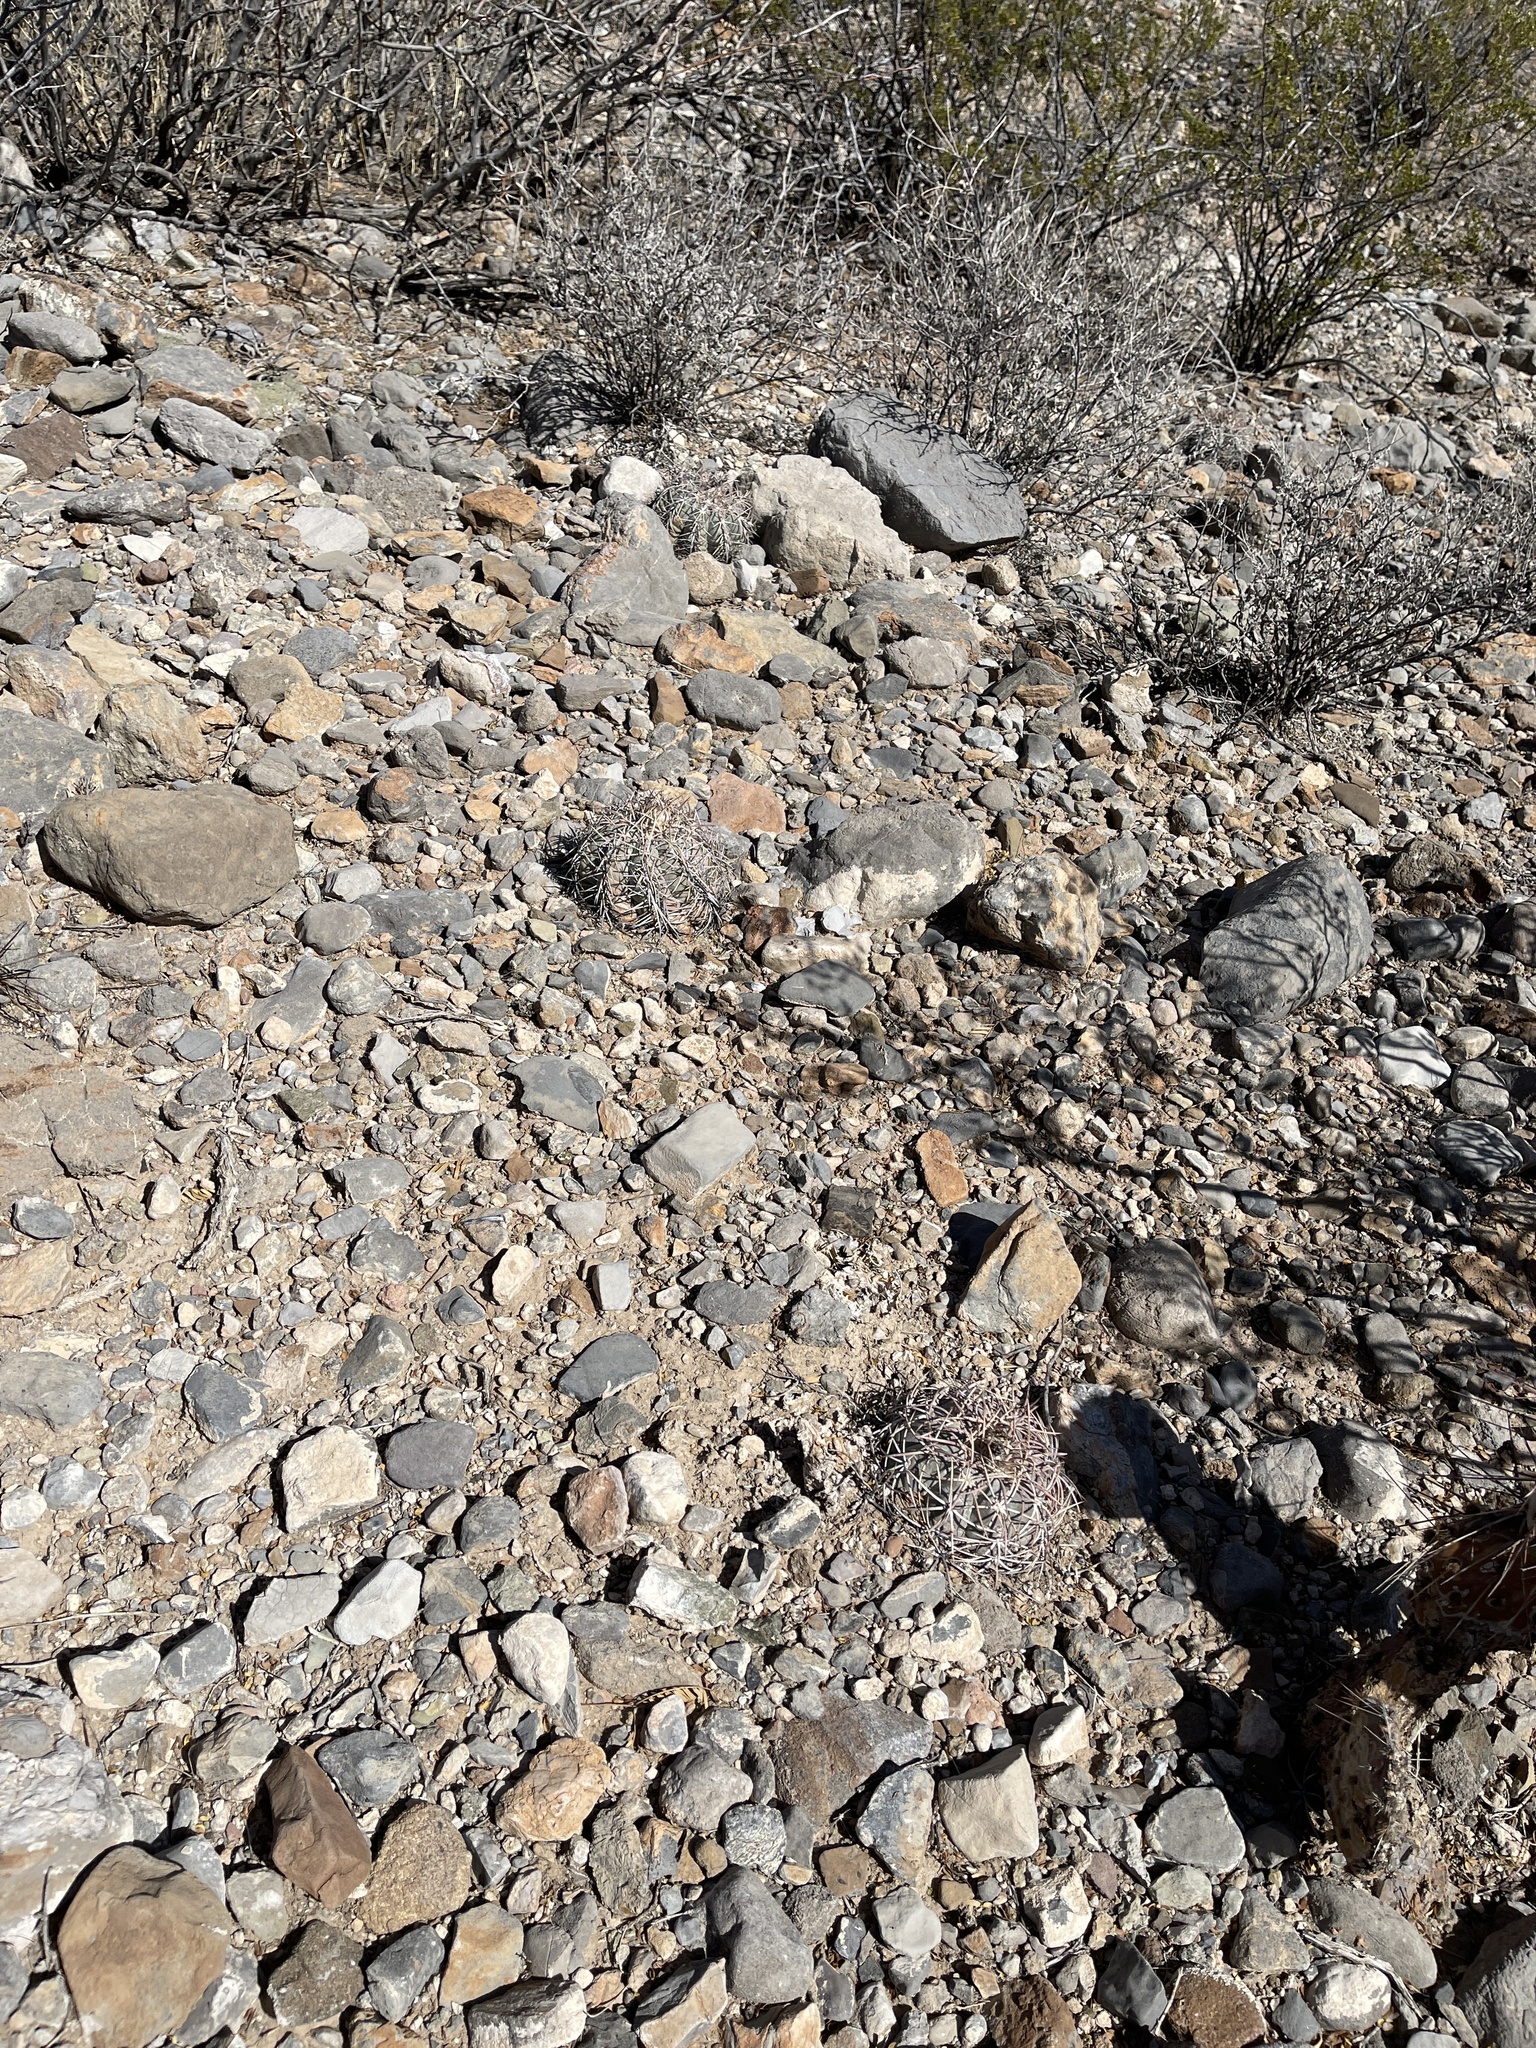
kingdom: Plantae
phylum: Tracheophyta
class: Magnoliopsida
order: Caryophyllales
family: Cactaceae
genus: Echinocactus
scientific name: Echinocactus horizonthalonius
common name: Devilshead
